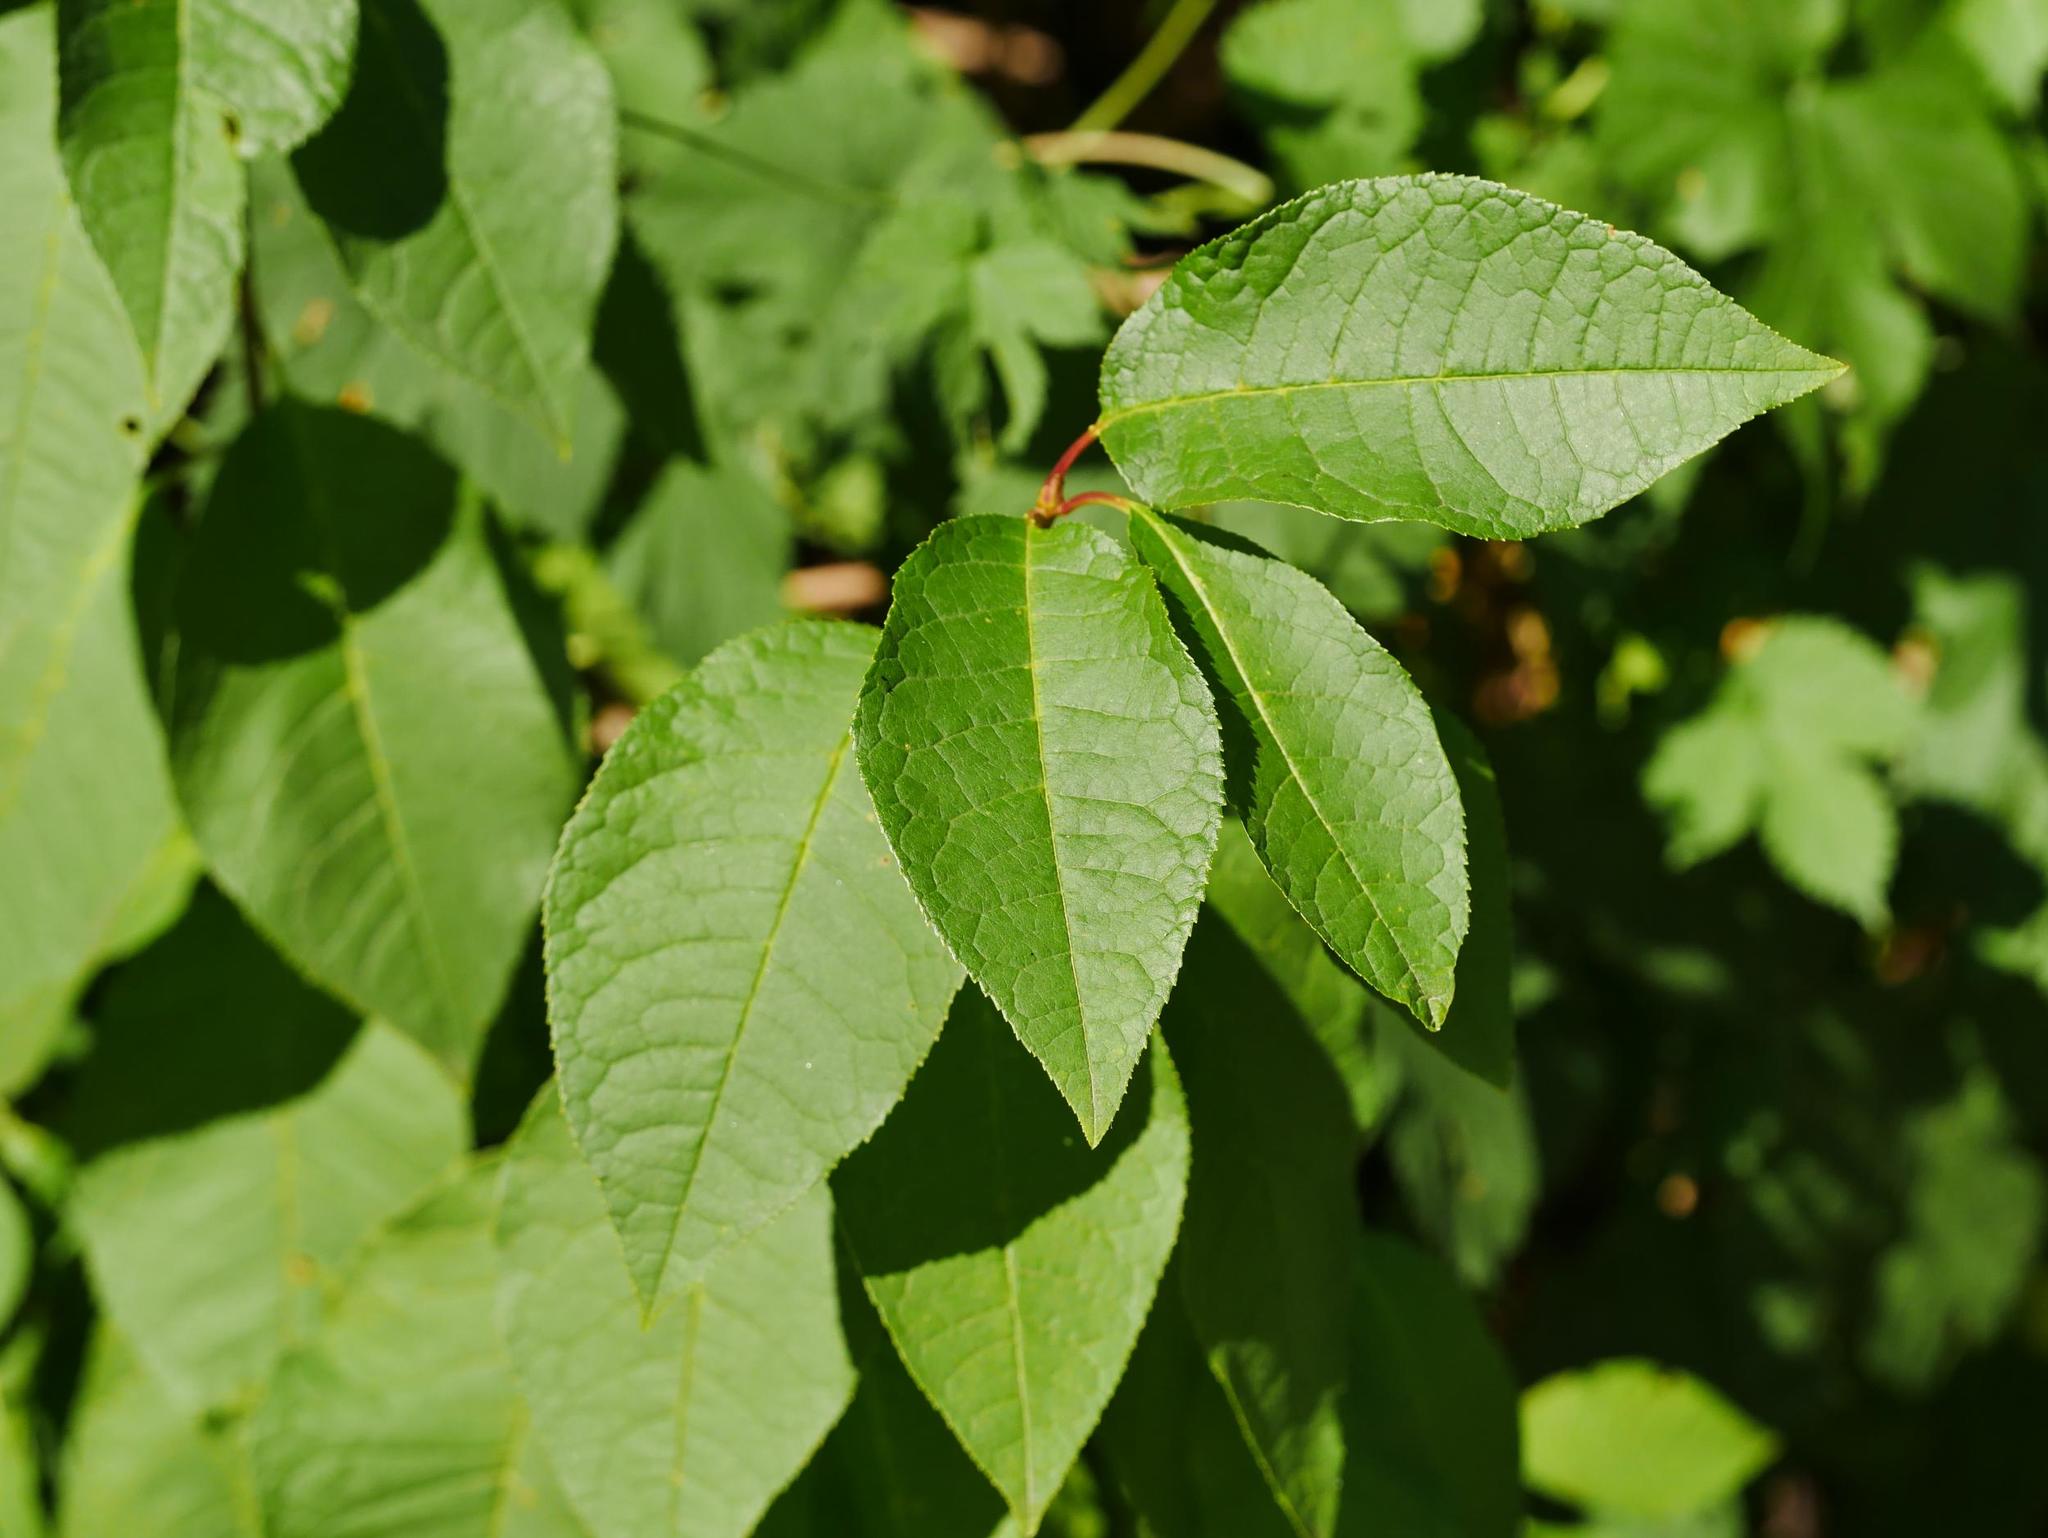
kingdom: Plantae
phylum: Tracheophyta
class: Magnoliopsida
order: Rosales
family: Rosaceae
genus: Prunus
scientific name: Prunus padus
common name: Bird cherry
